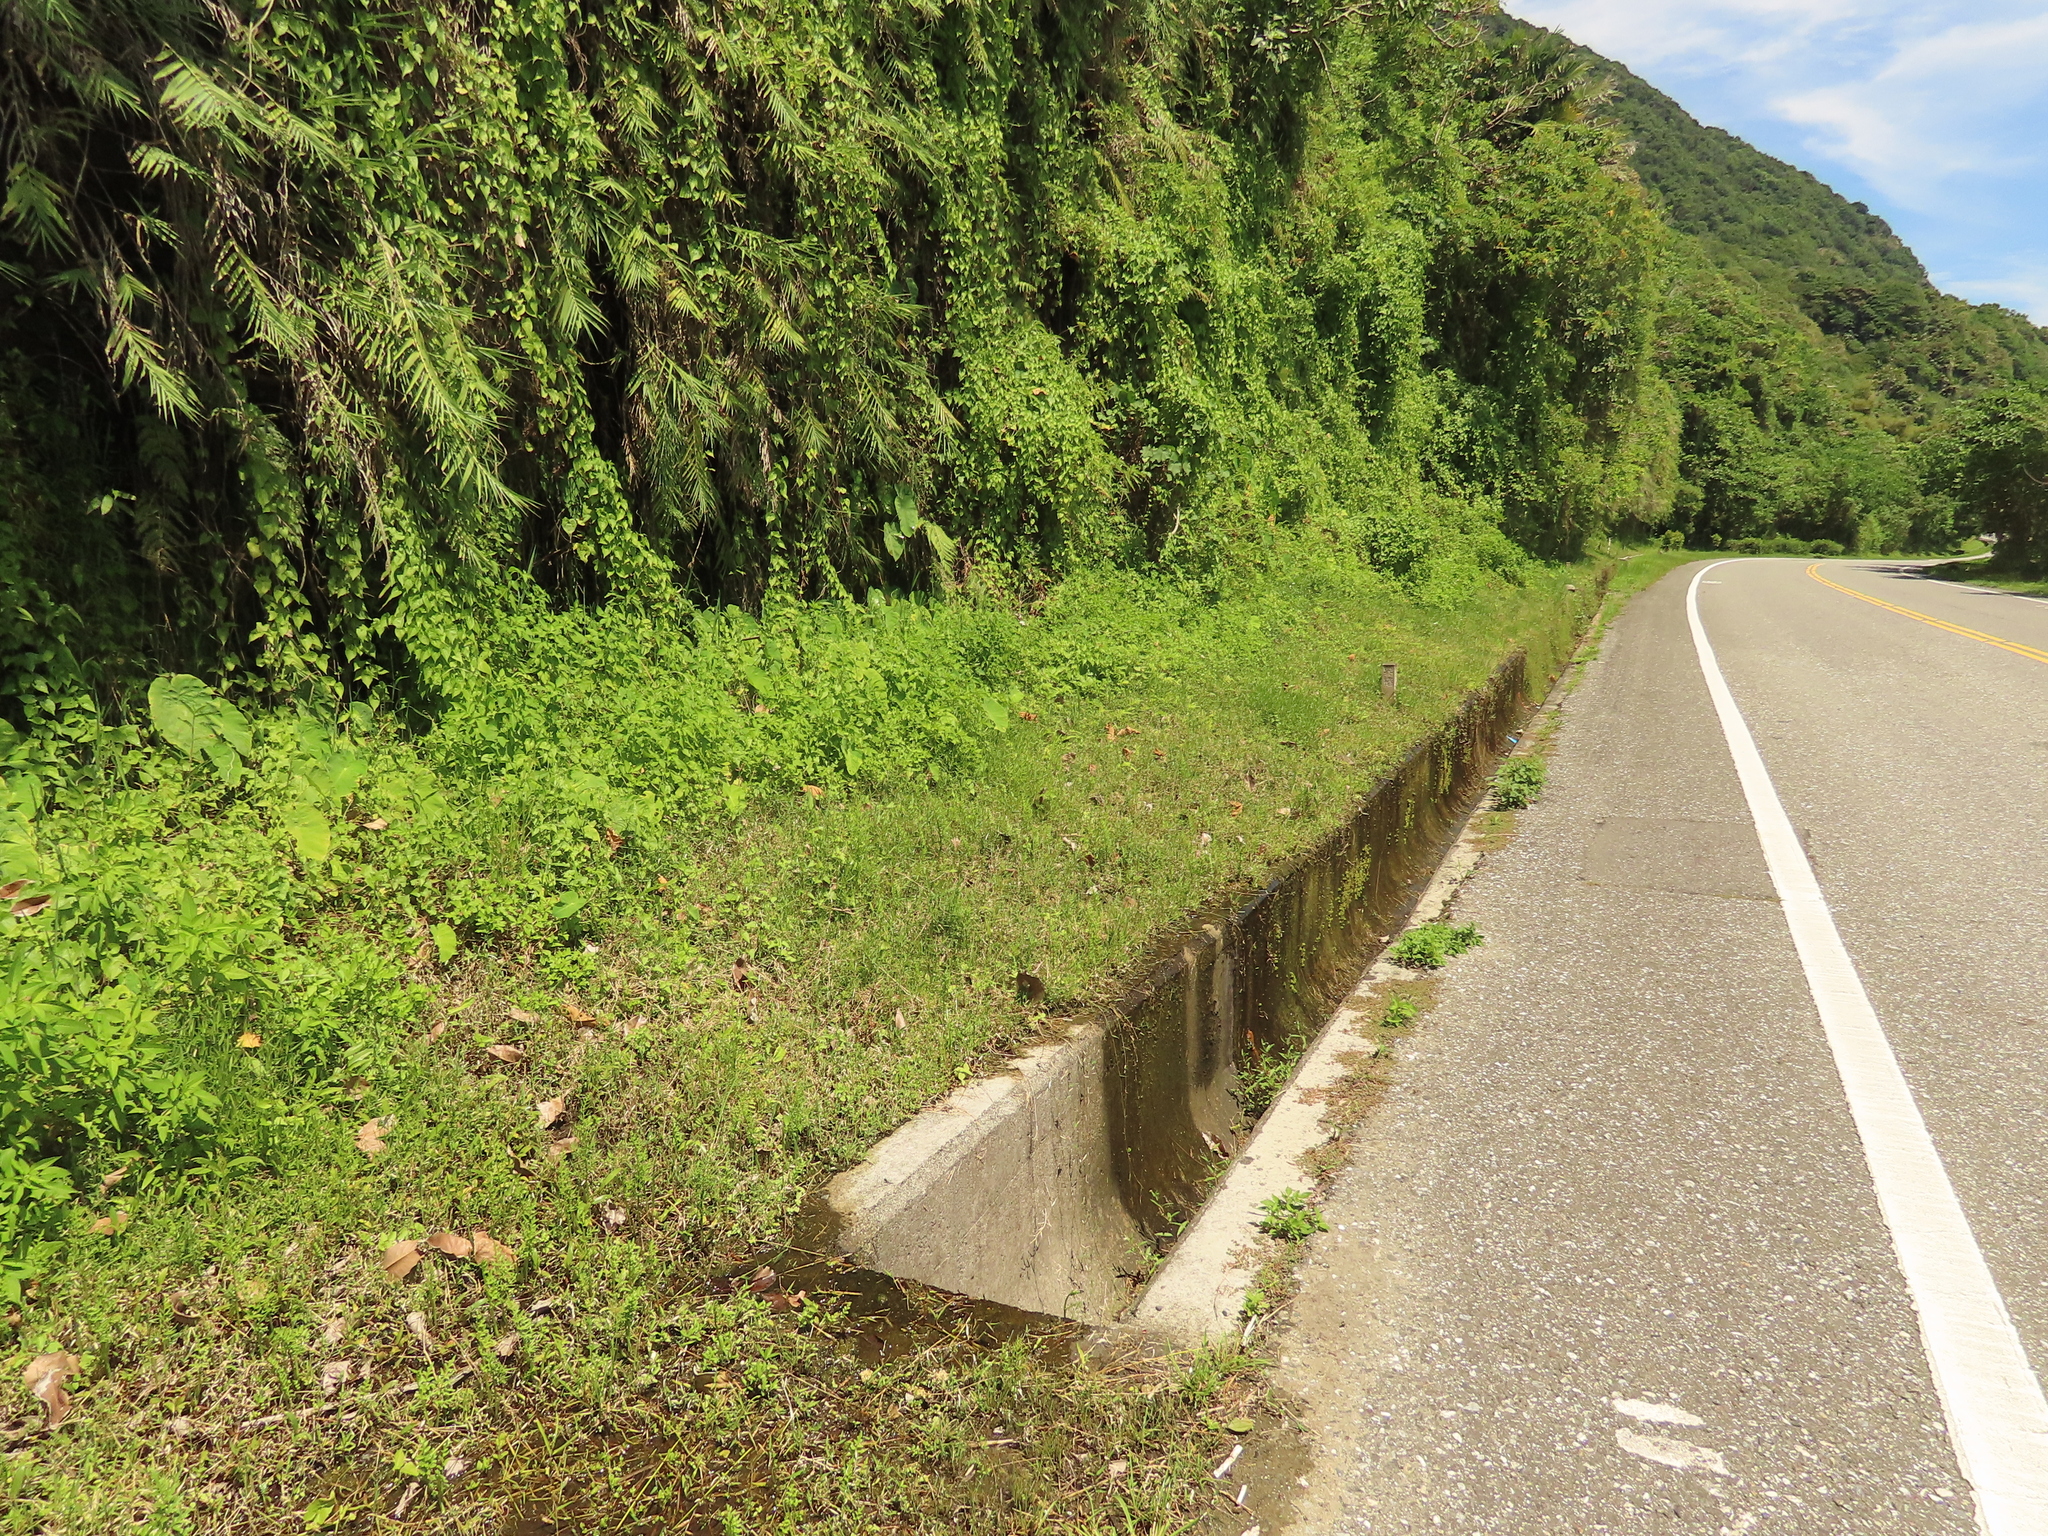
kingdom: Plantae
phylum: Tracheophyta
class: Polypodiopsida
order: Polypodiales
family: Pteridaceae
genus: Ceratopteris
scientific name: Ceratopteris thalictroides
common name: Water fern
